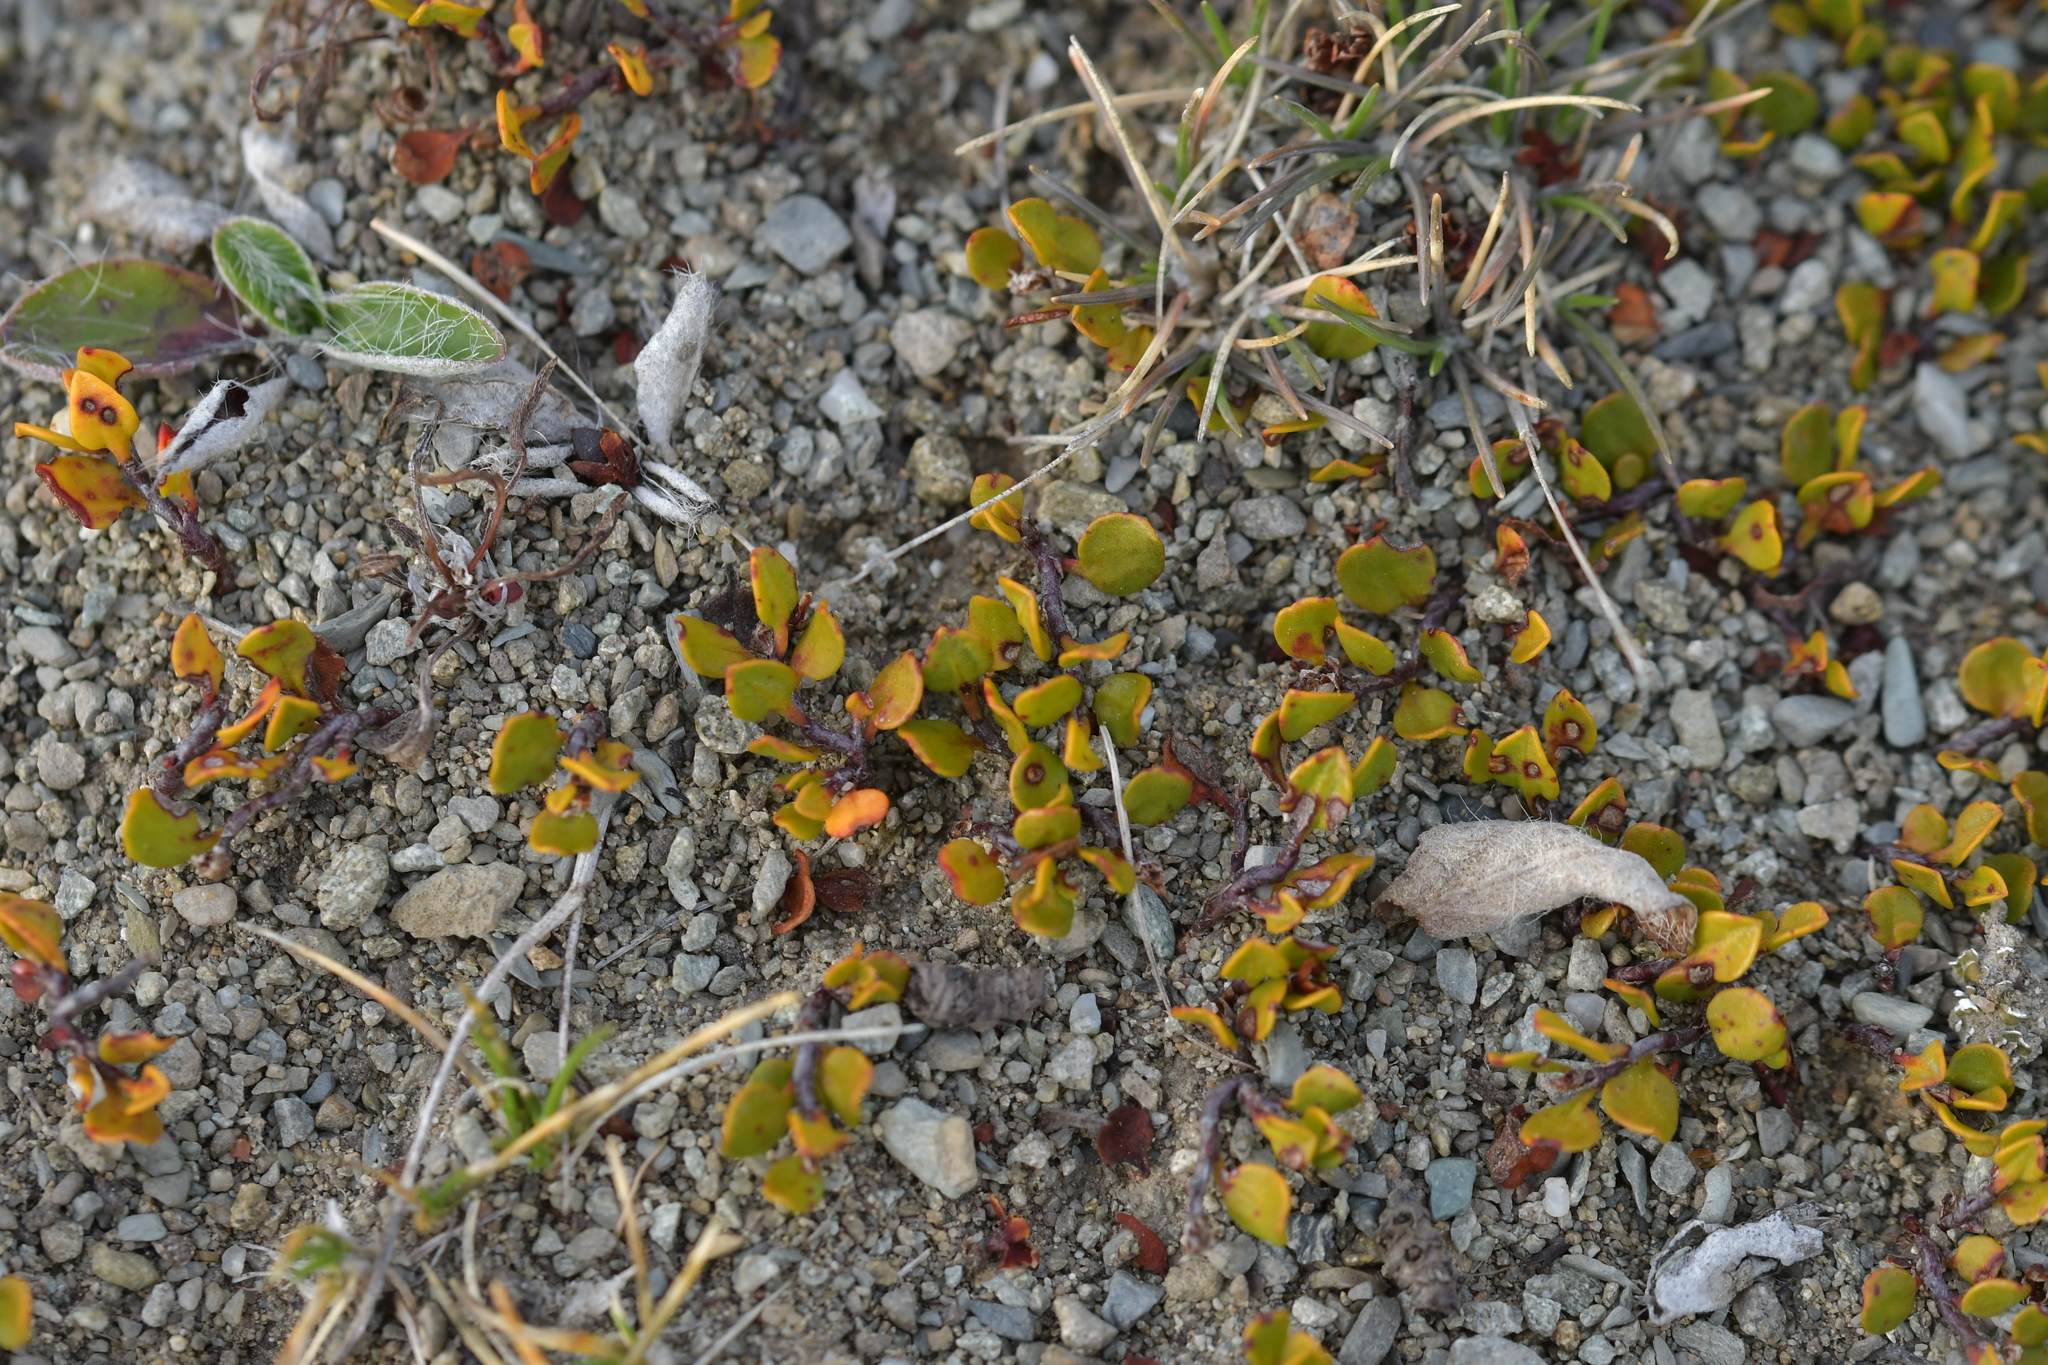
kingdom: Plantae
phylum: Tracheophyta
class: Magnoliopsida
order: Caryophyllales
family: Polygonaceae
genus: Muehlenbeckia
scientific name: Muehlenbeckia axillaris
